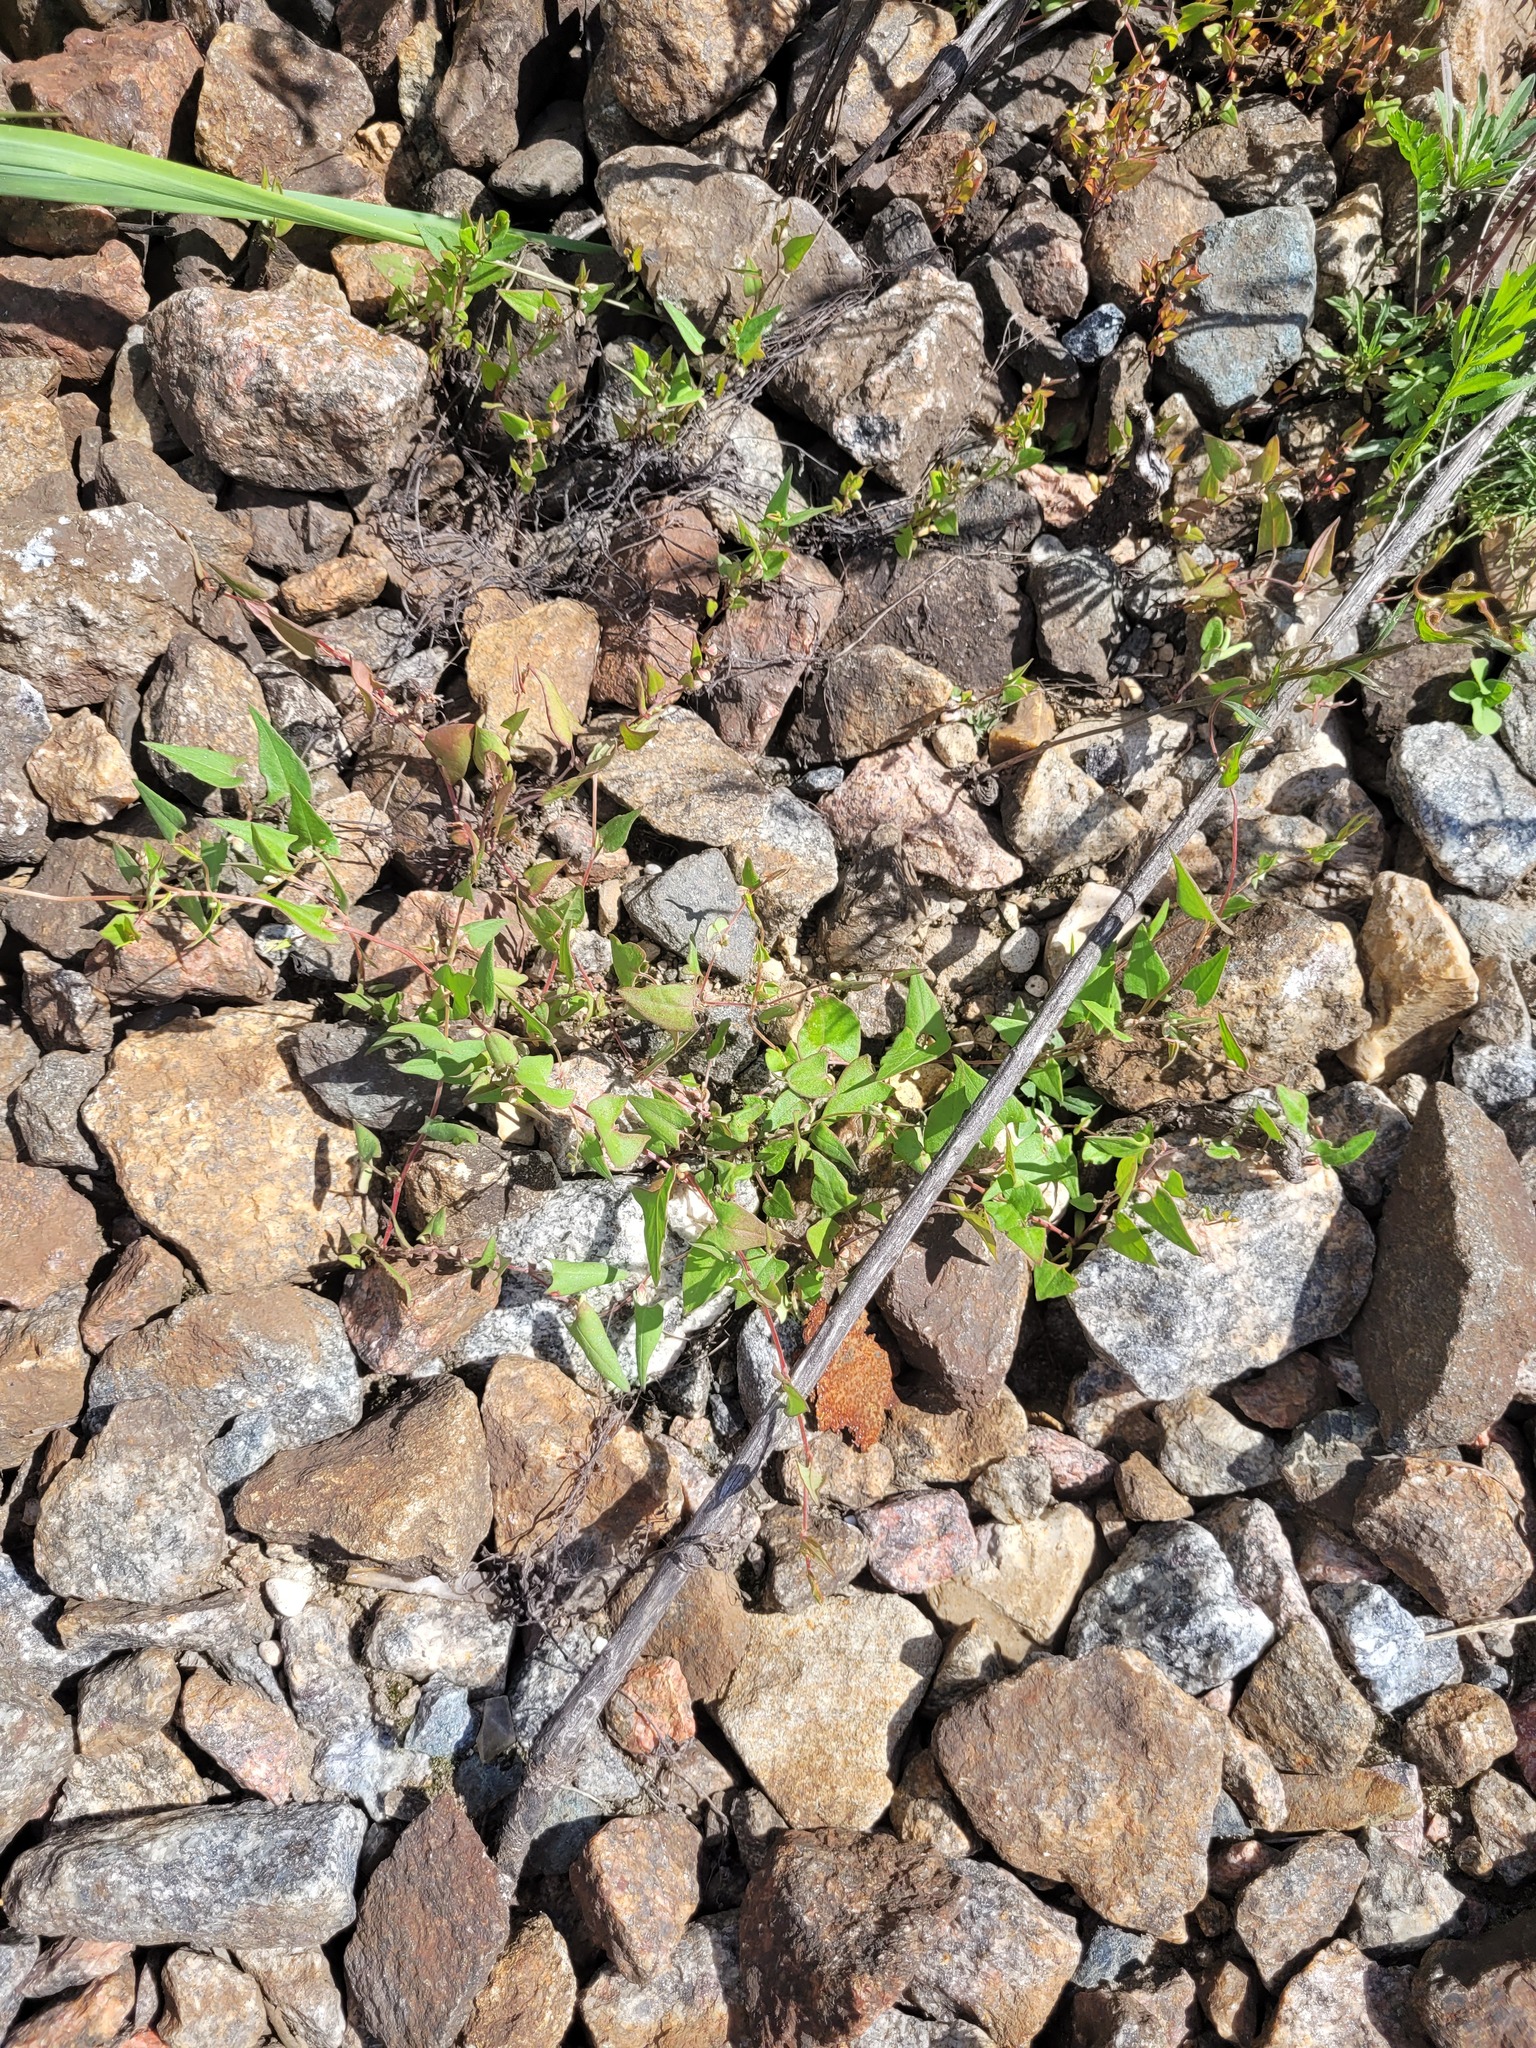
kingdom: Plantae
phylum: Tracheophyta
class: Magnoliopsida
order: Caryophyllales
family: Polygonaceae
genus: Fallopia
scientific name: Fallopia convolvulus
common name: Black bindweed
